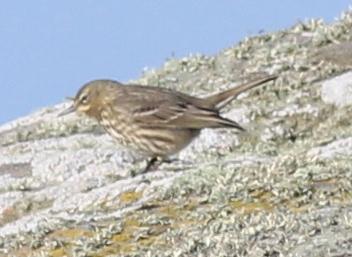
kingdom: Animalia
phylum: Chordata
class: Aves
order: Passeriformes
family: Motacillidae
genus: Anthus
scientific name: Anthus petrosus
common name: Eurasian rock pipit
